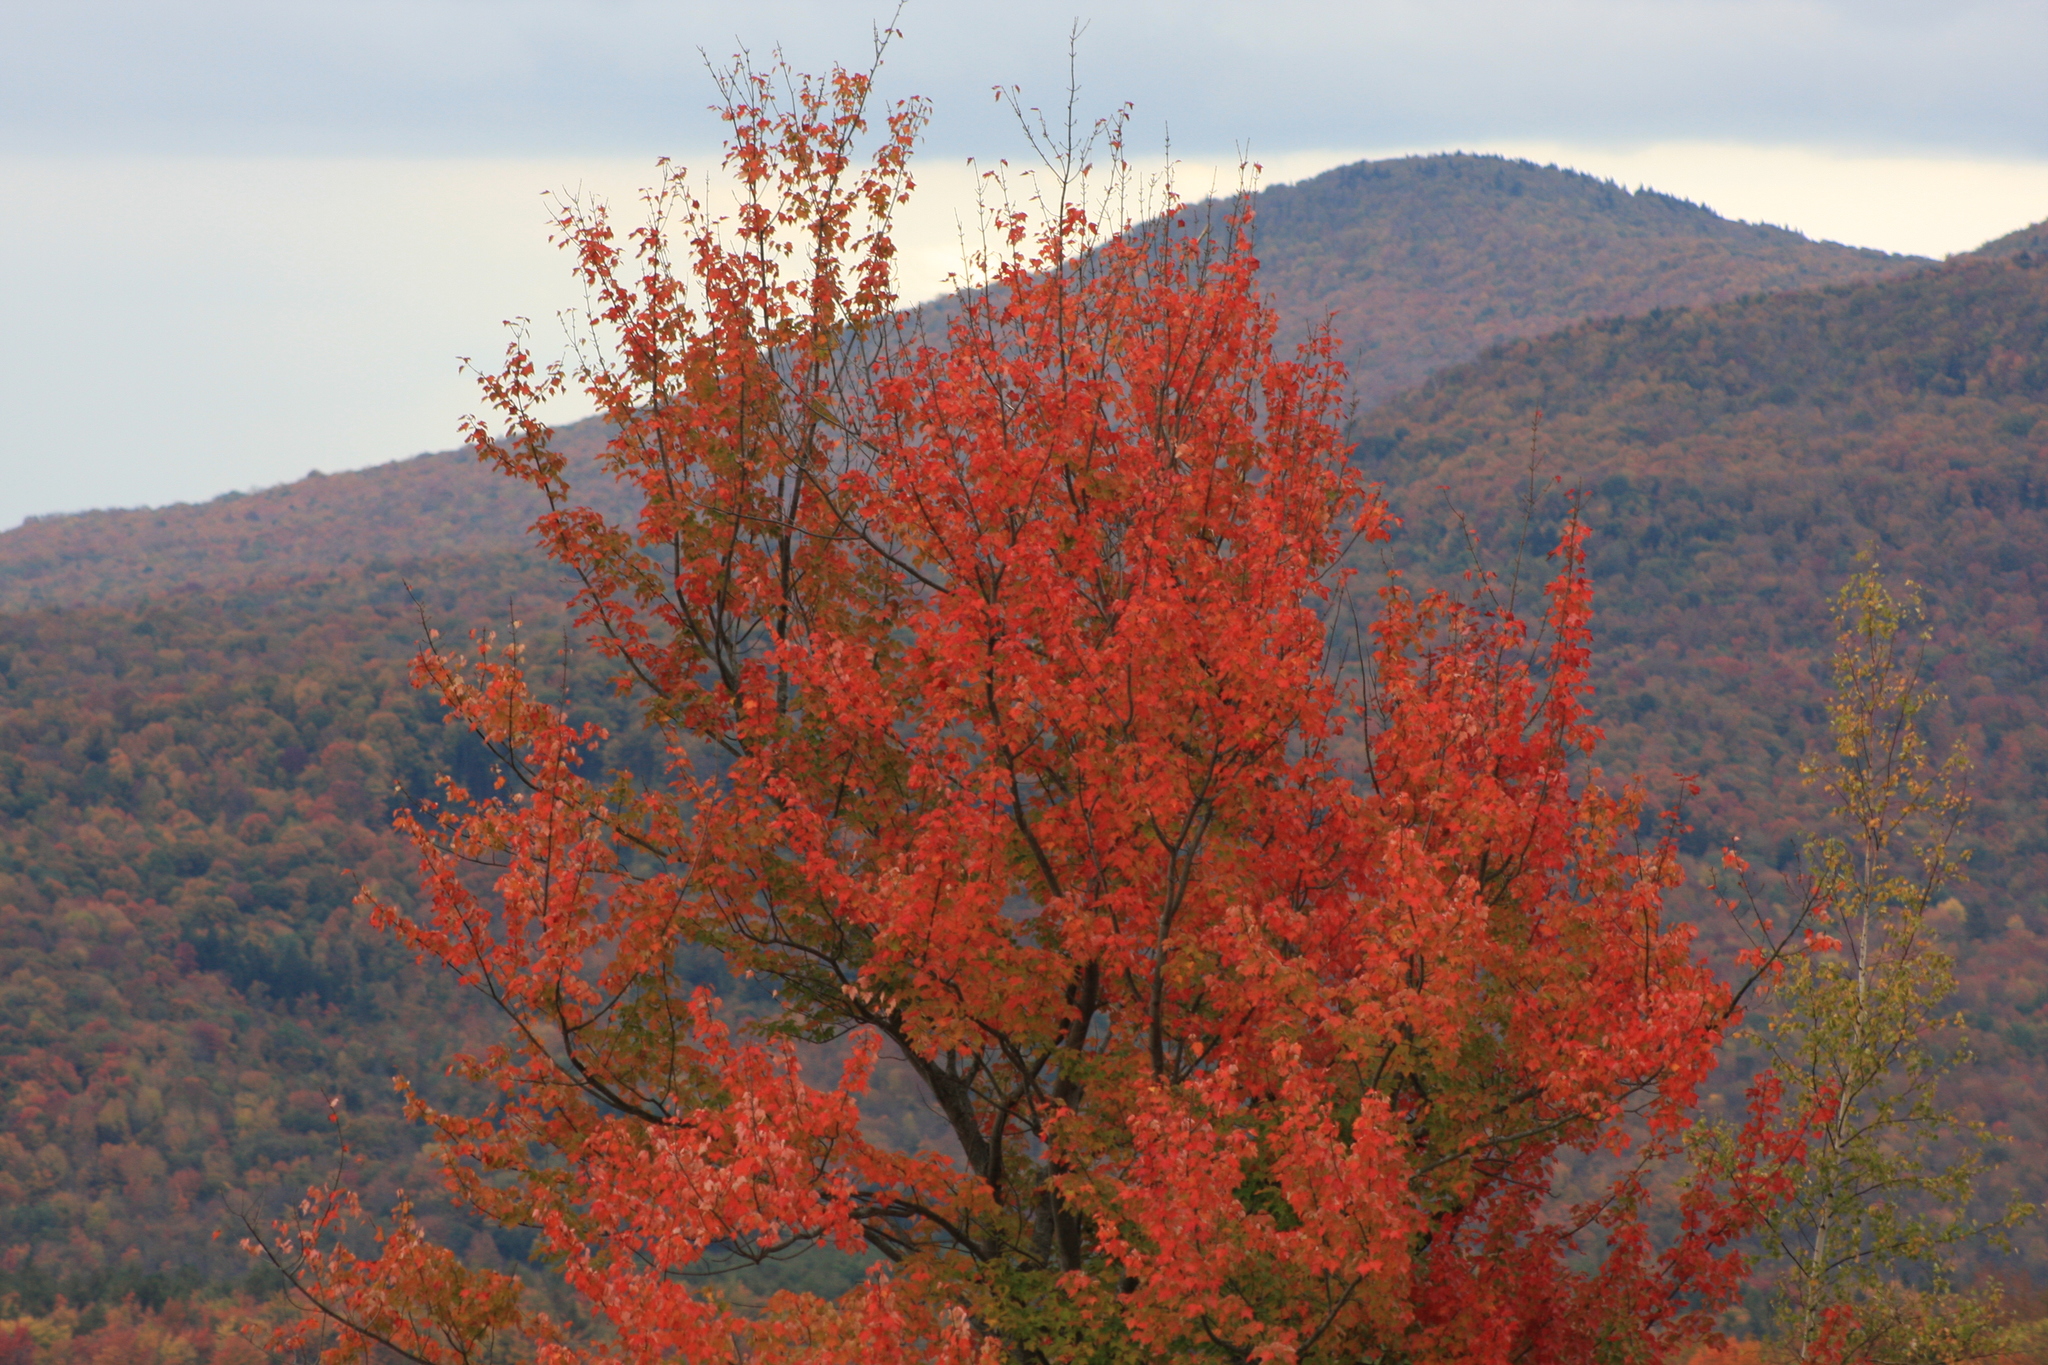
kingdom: Plantae
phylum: Tracheophyta
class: Magnoliopsida
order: Sapindales
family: Sapindaceae
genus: Acer
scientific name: Acer rubrum
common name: Red maple
